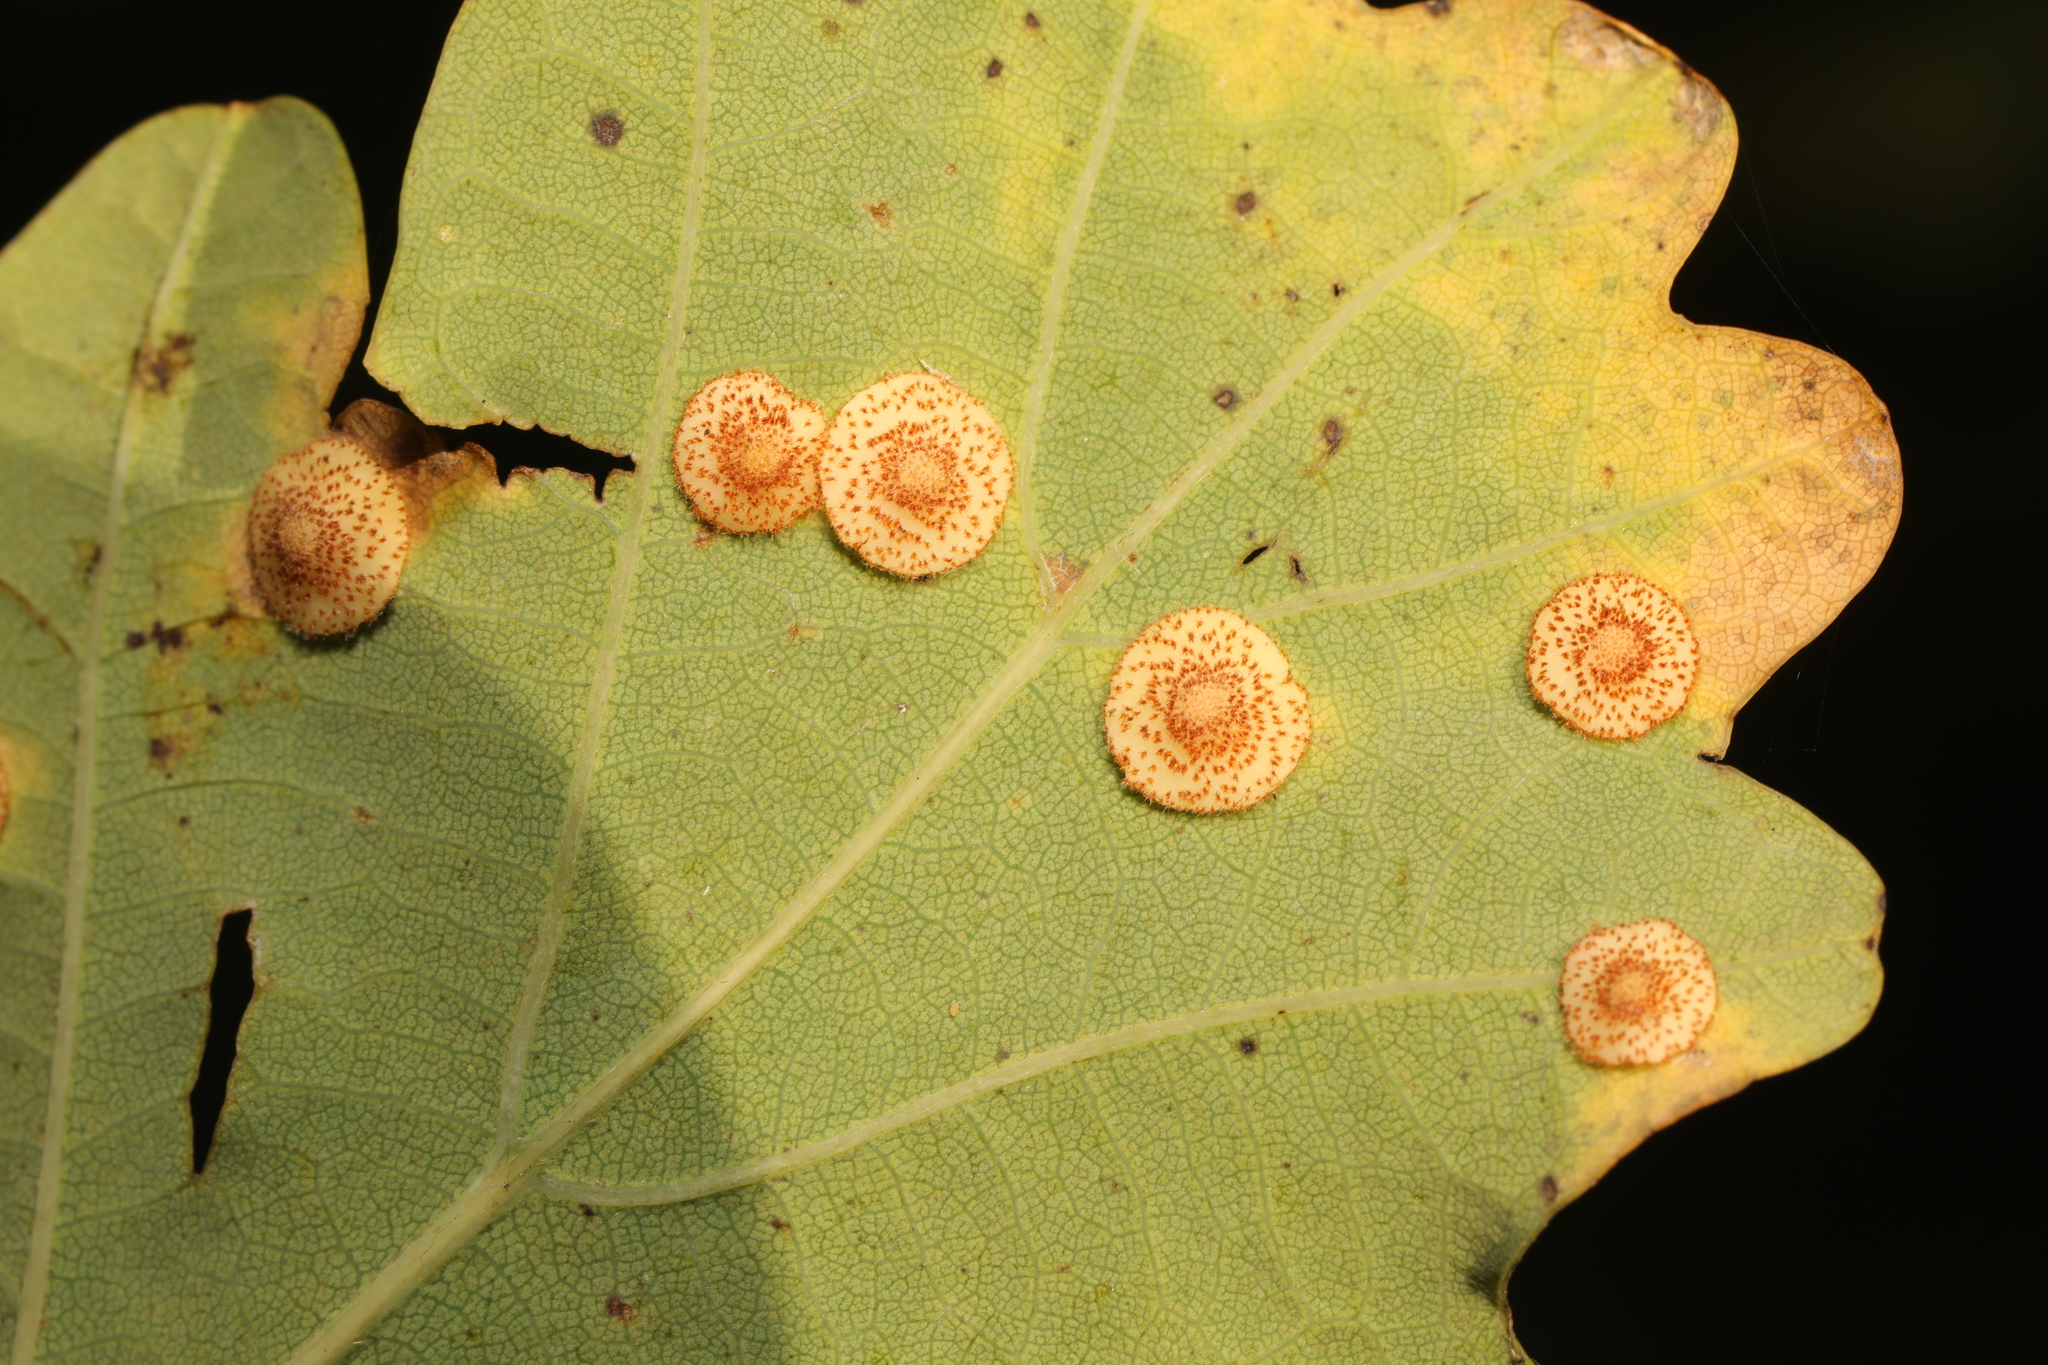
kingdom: Animalia
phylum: Arthropoda
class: Insecta
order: Hymenoptera
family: Cynipidae
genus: Neuroterus
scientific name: Neuroterus quercusbaccarum
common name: Common spangle gall
